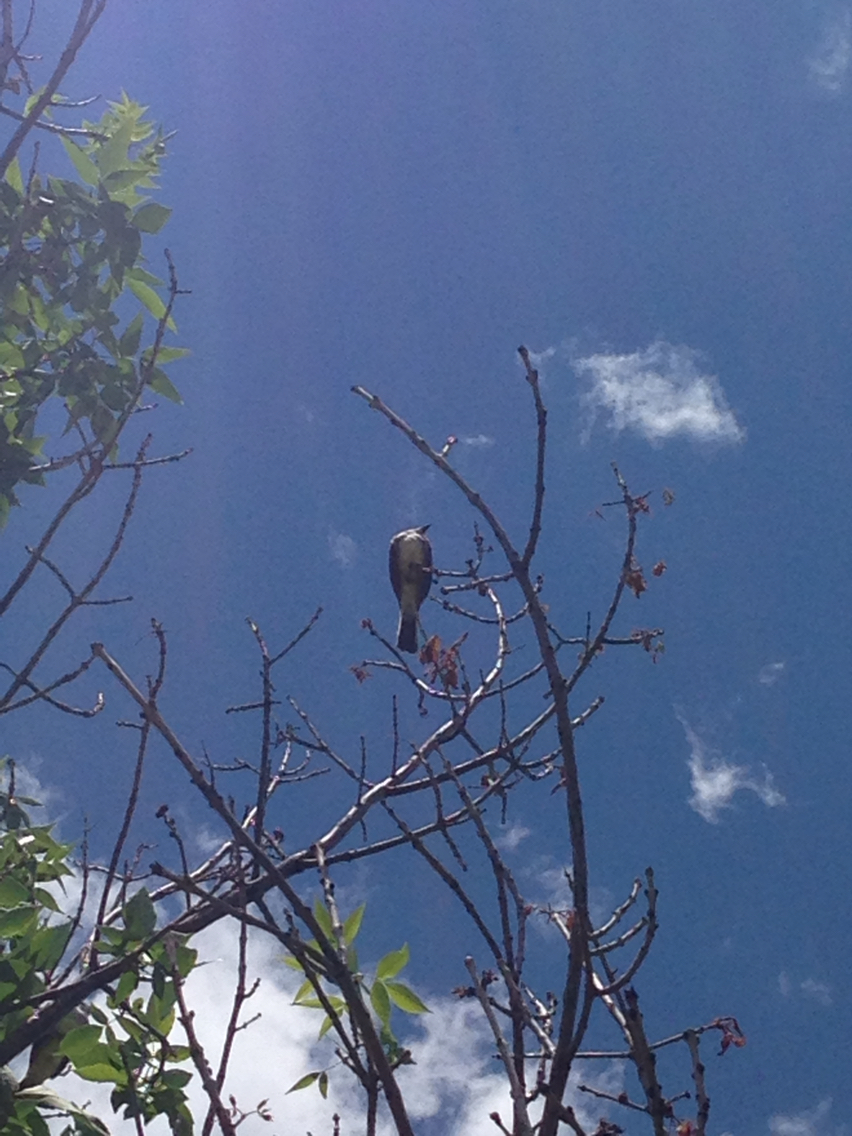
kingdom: Animalia
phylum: Chordata
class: Aves
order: Passeriformes
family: Tyrannidae
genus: Tyrannus
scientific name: Tyrannus verticalis
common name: Western kingbird
